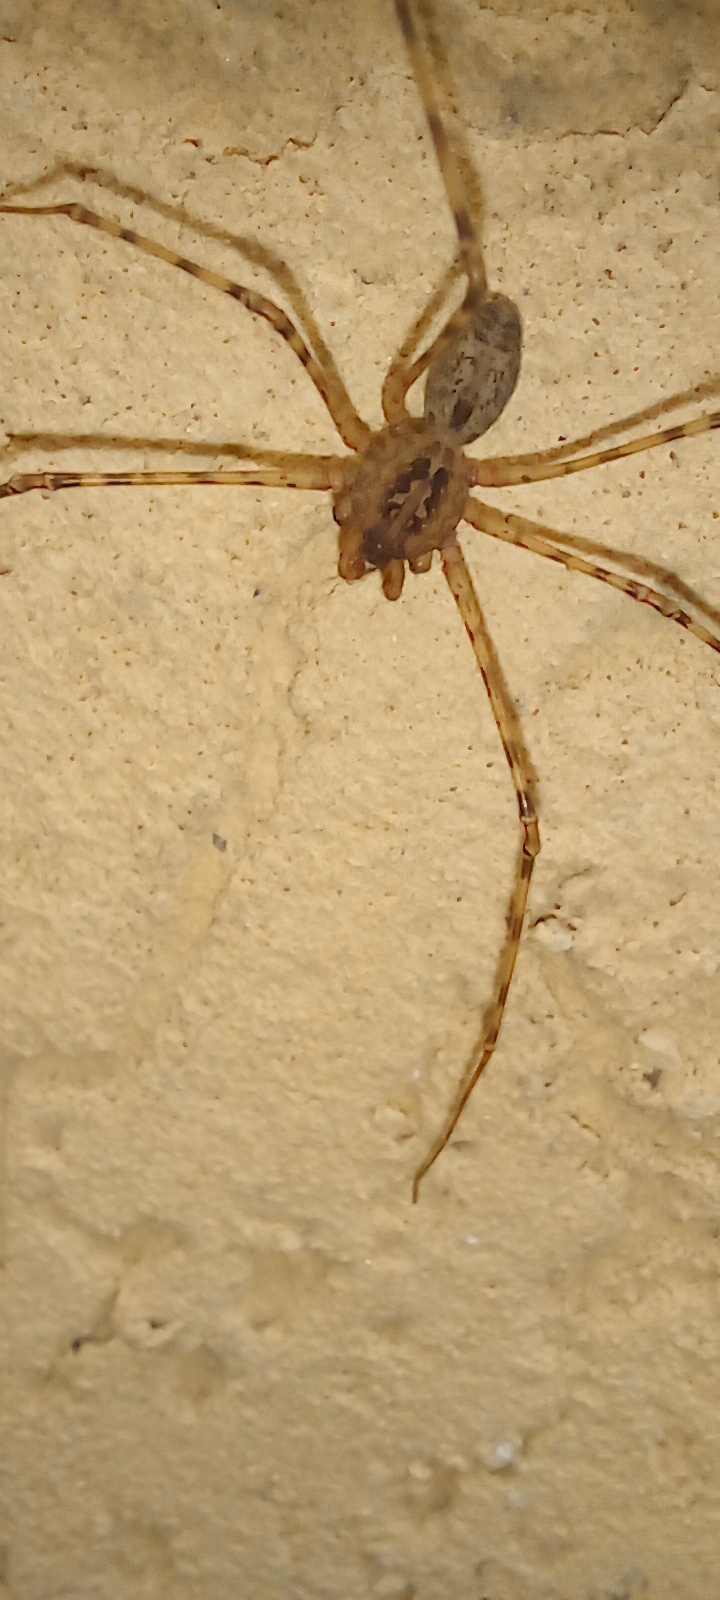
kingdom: Animalia
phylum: Arthropoda
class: Arachnida
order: Araneae
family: Scytodidae
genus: Scytodes
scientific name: Scytodes globula
